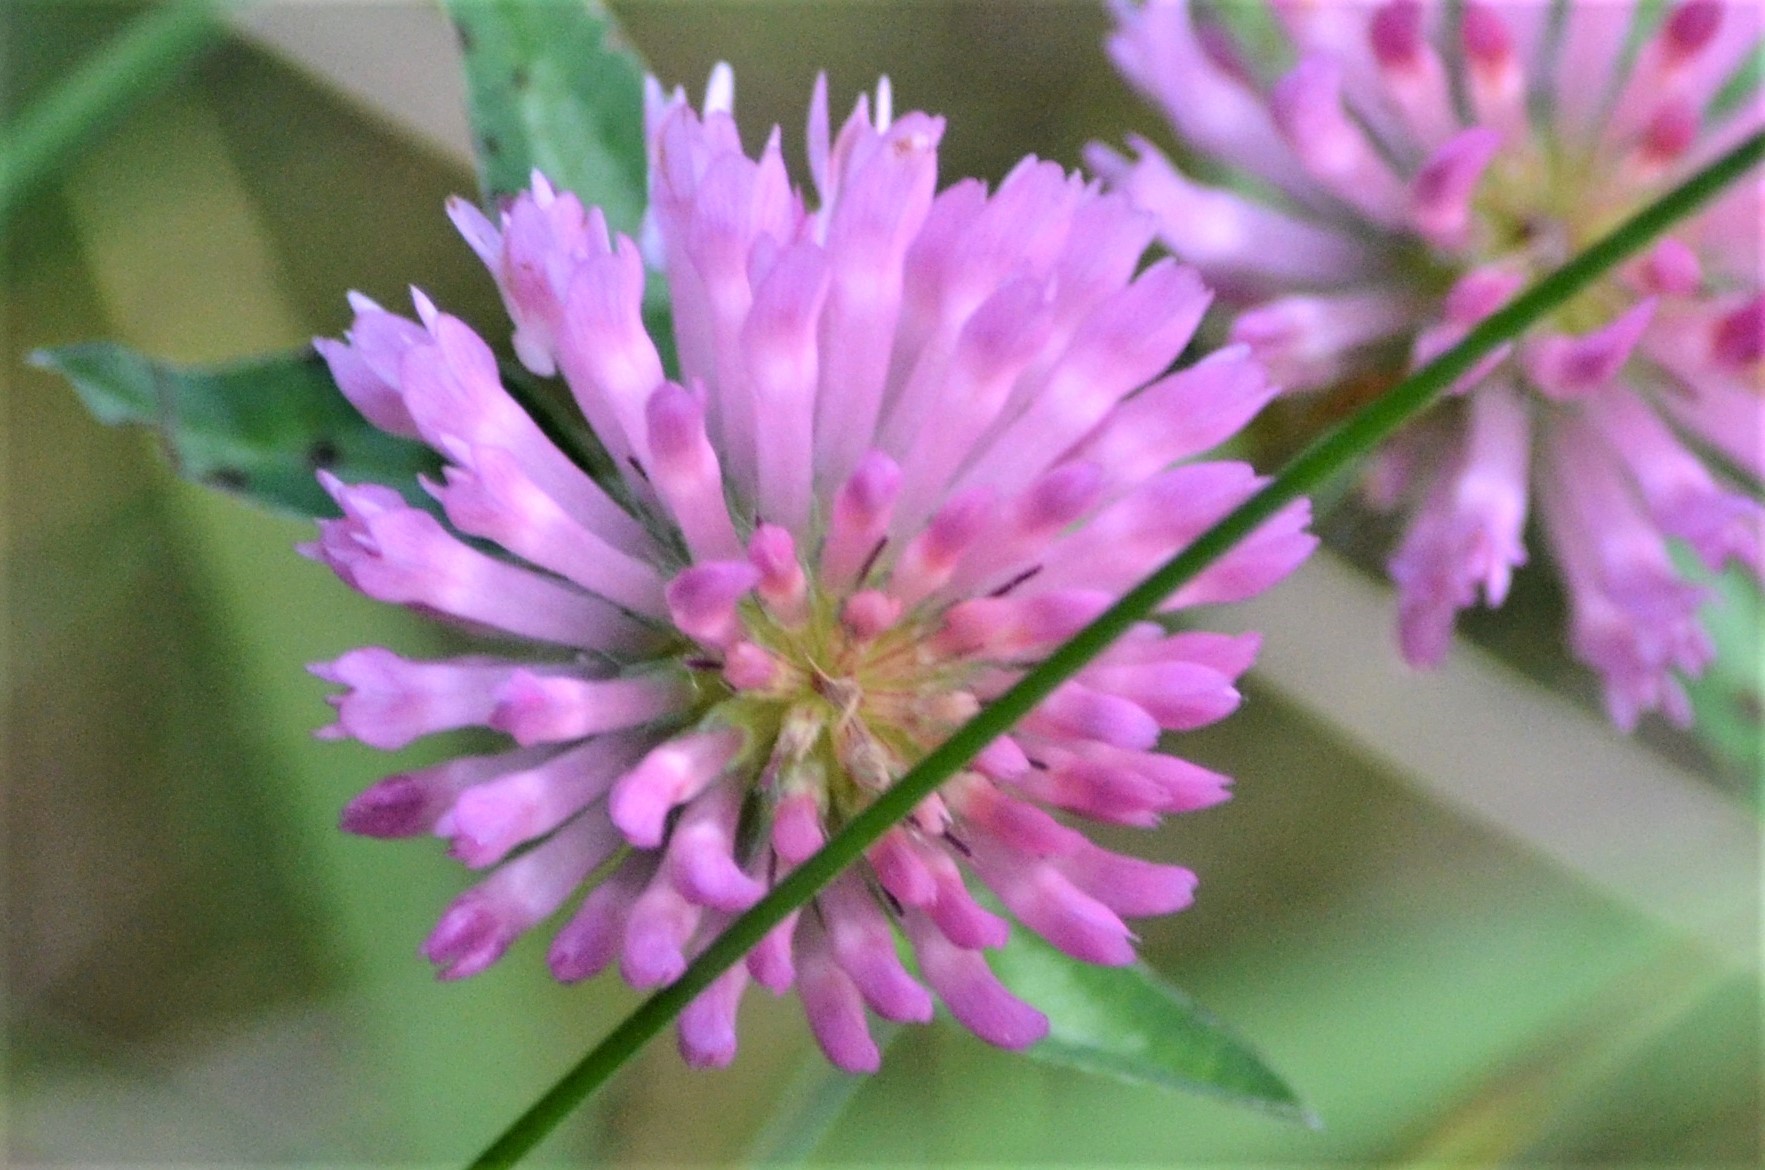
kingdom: Plantae
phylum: Tracheophyta
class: Magnoliopsida
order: Fabales
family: Fabaceae
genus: Trifolium
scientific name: Trifolium pratense
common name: Red clover
